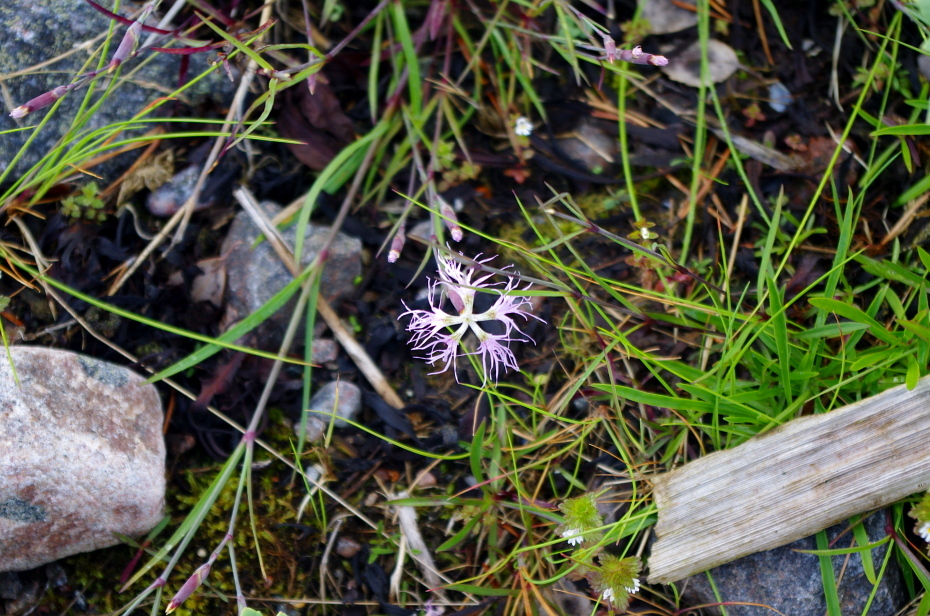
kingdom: Plantae
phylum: Tracheophyta
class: Magnoliopsida
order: Caryophyllales
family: Caryophyllaceae
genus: Dianthus
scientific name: Dianthus superbus
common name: Fringed pink
